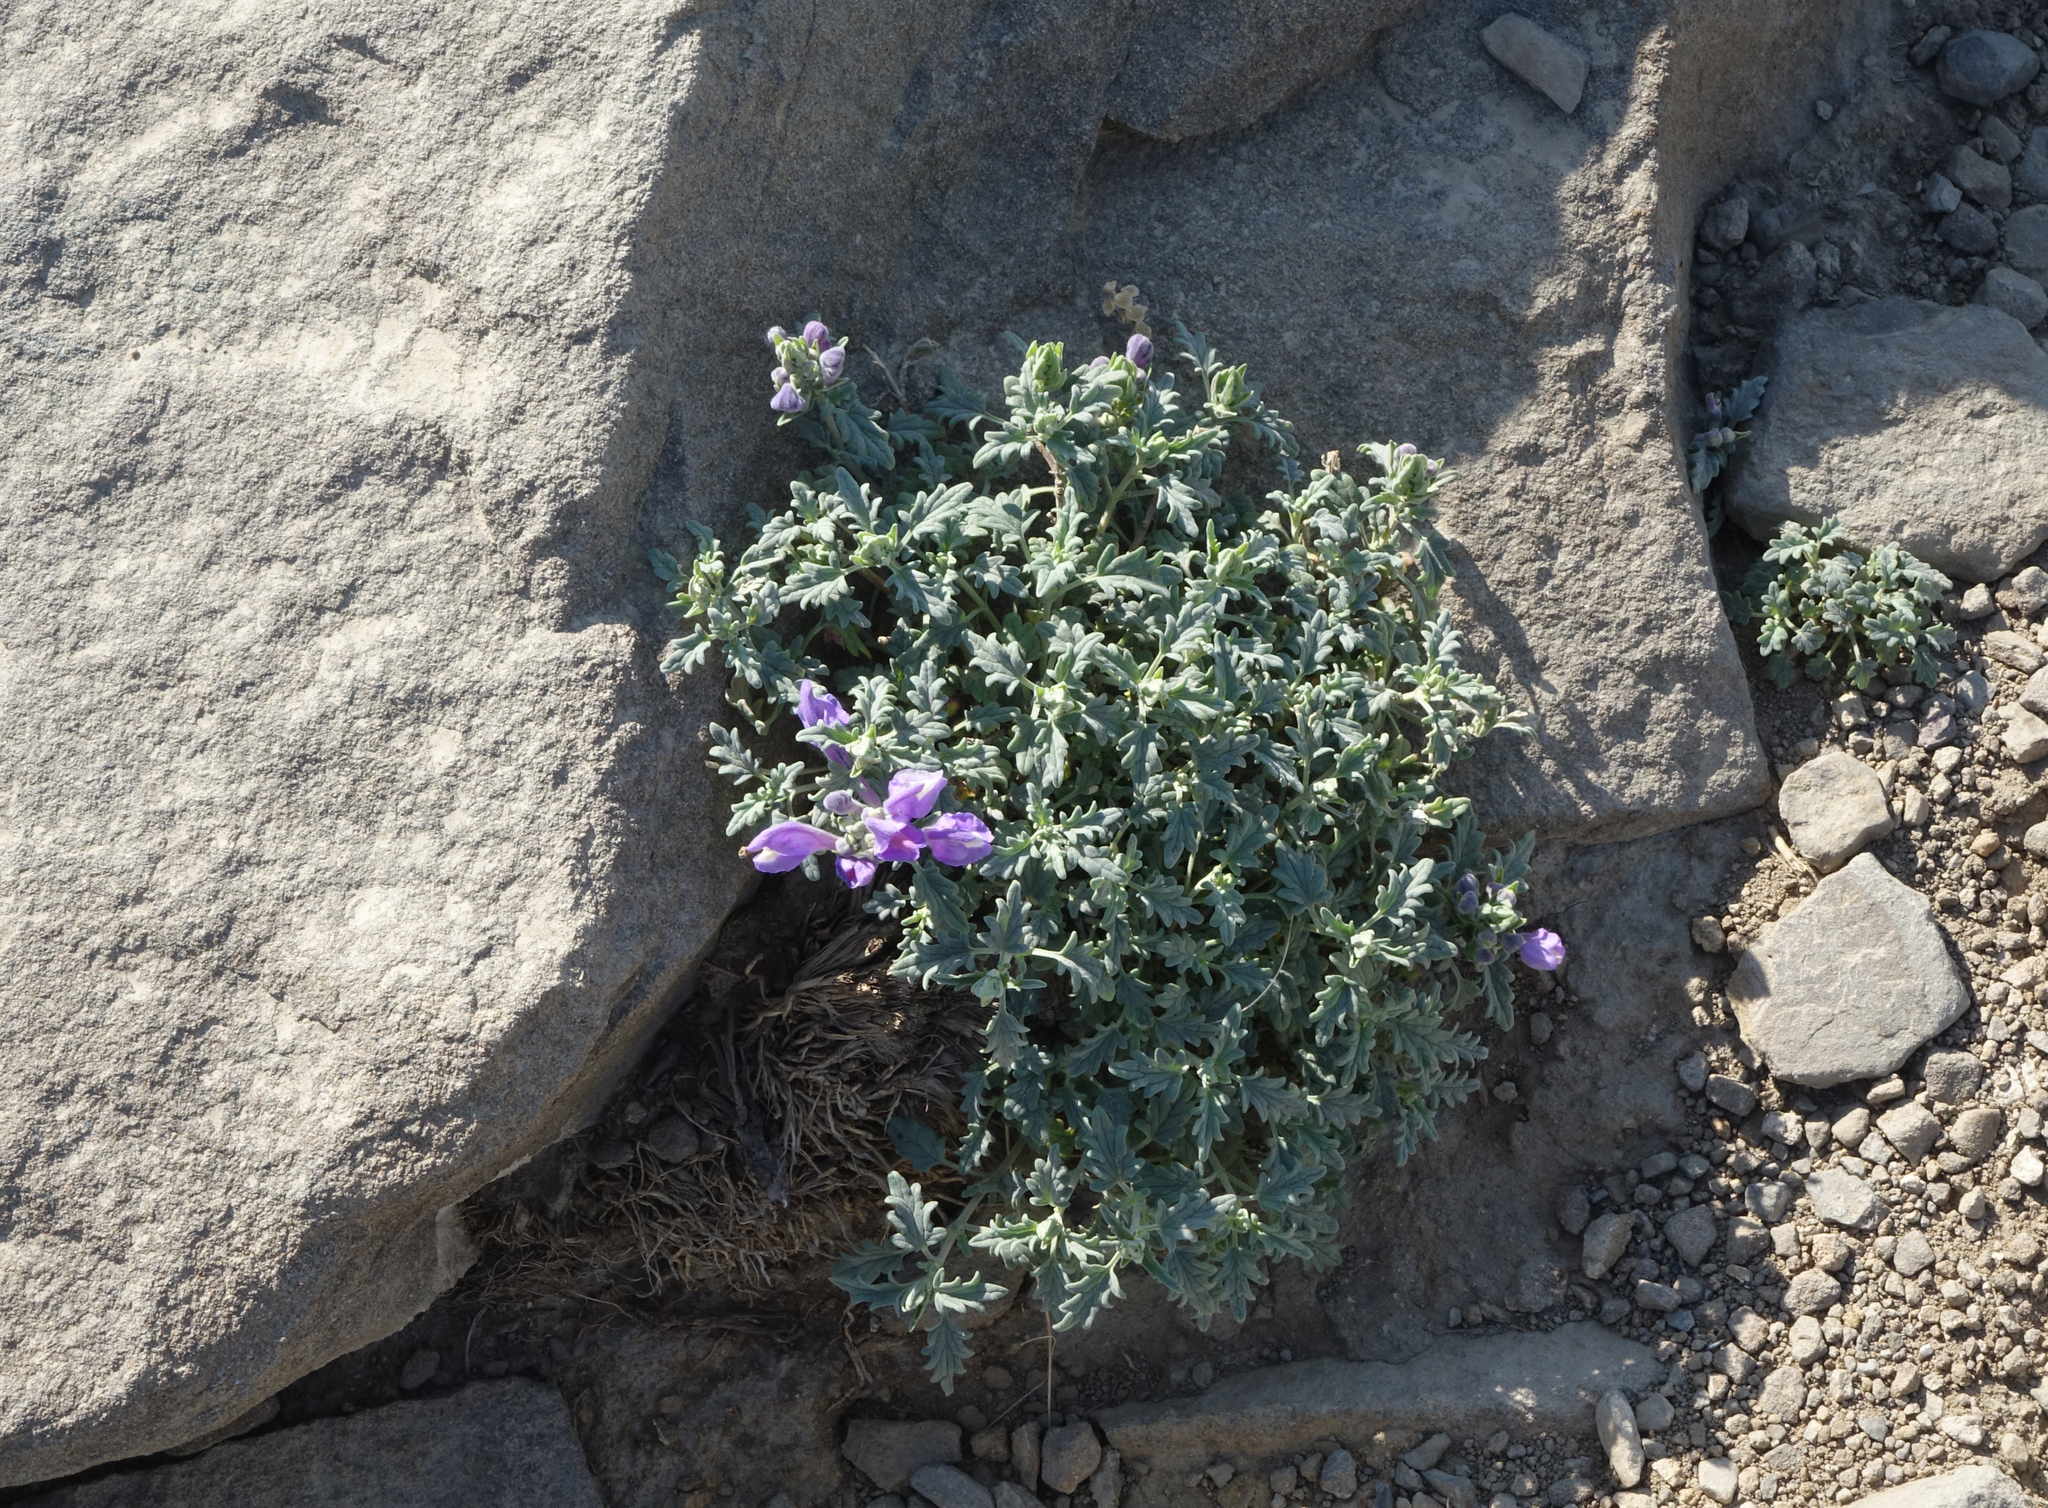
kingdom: Plantae
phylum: Tracheophyta
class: Magnoliopsida
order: Lamiales
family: Lamiaceae
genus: Dracocephalum
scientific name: Dracocephalum origanoides
